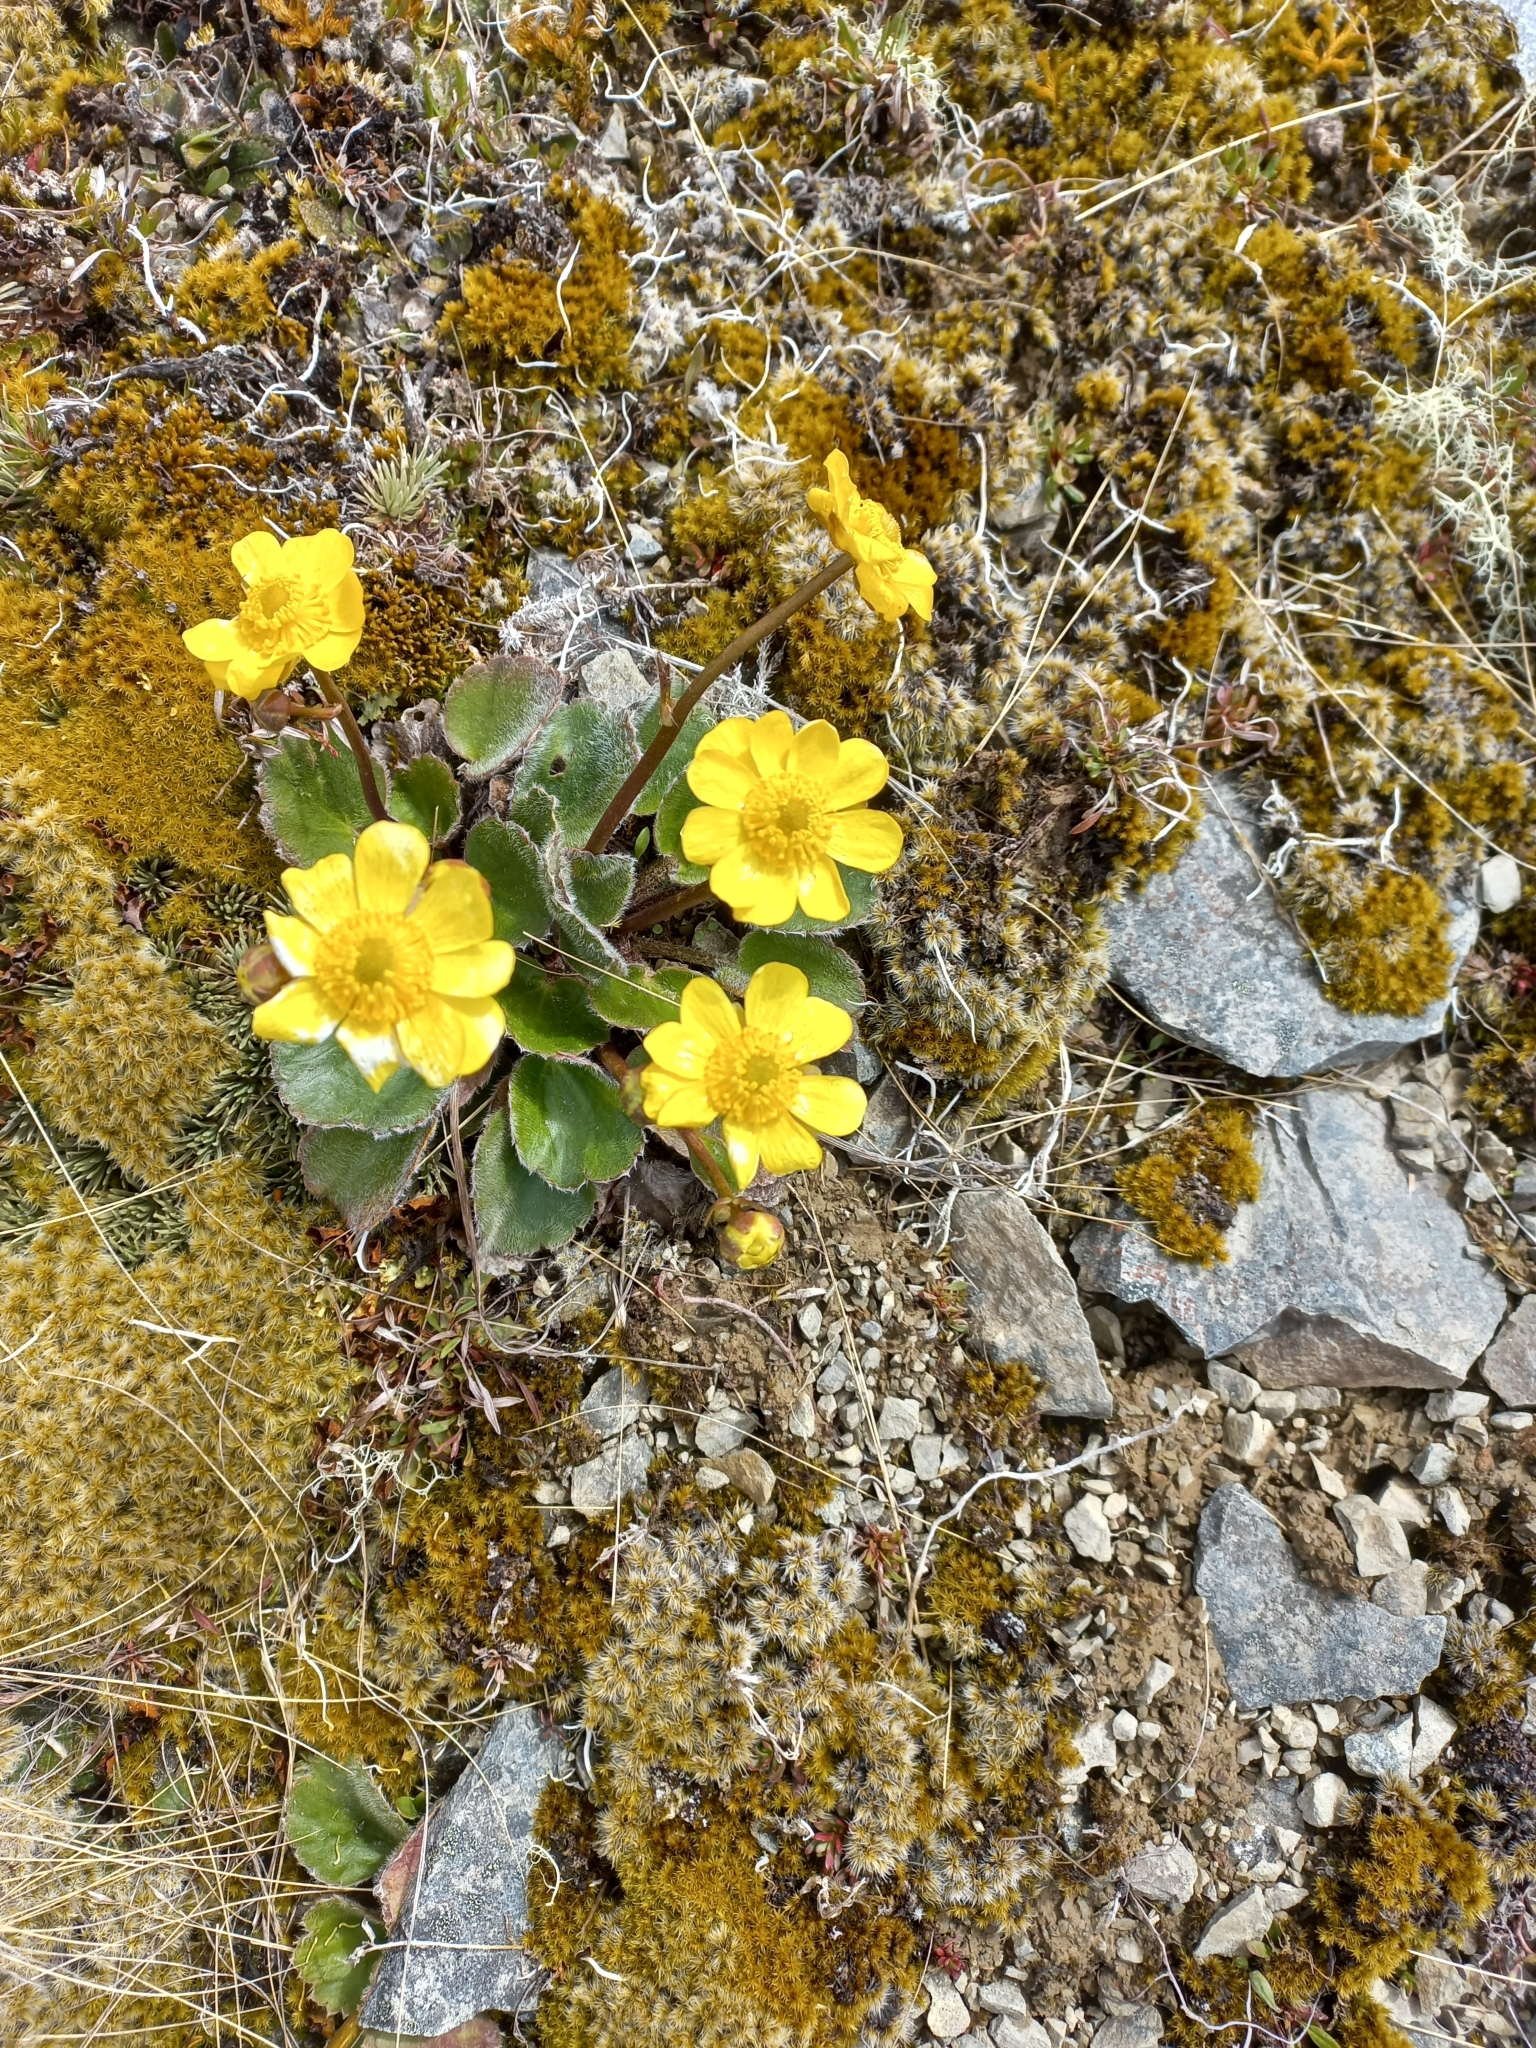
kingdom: Plantae
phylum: Tracheophyta
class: Magnoliopsida
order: Ranunculales
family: Ranunculaceae
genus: Ranunculus
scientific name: Ranunculus insignis
